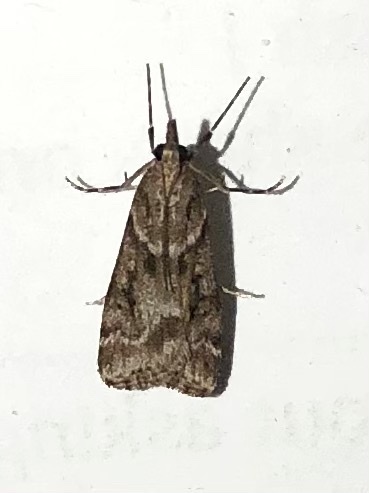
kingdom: Animalia
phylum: Arthropoda
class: Insecta
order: Lepidoptera
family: Crambidae
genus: Eudonia
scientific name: Eudonia angustea
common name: Narrow-winged grey
